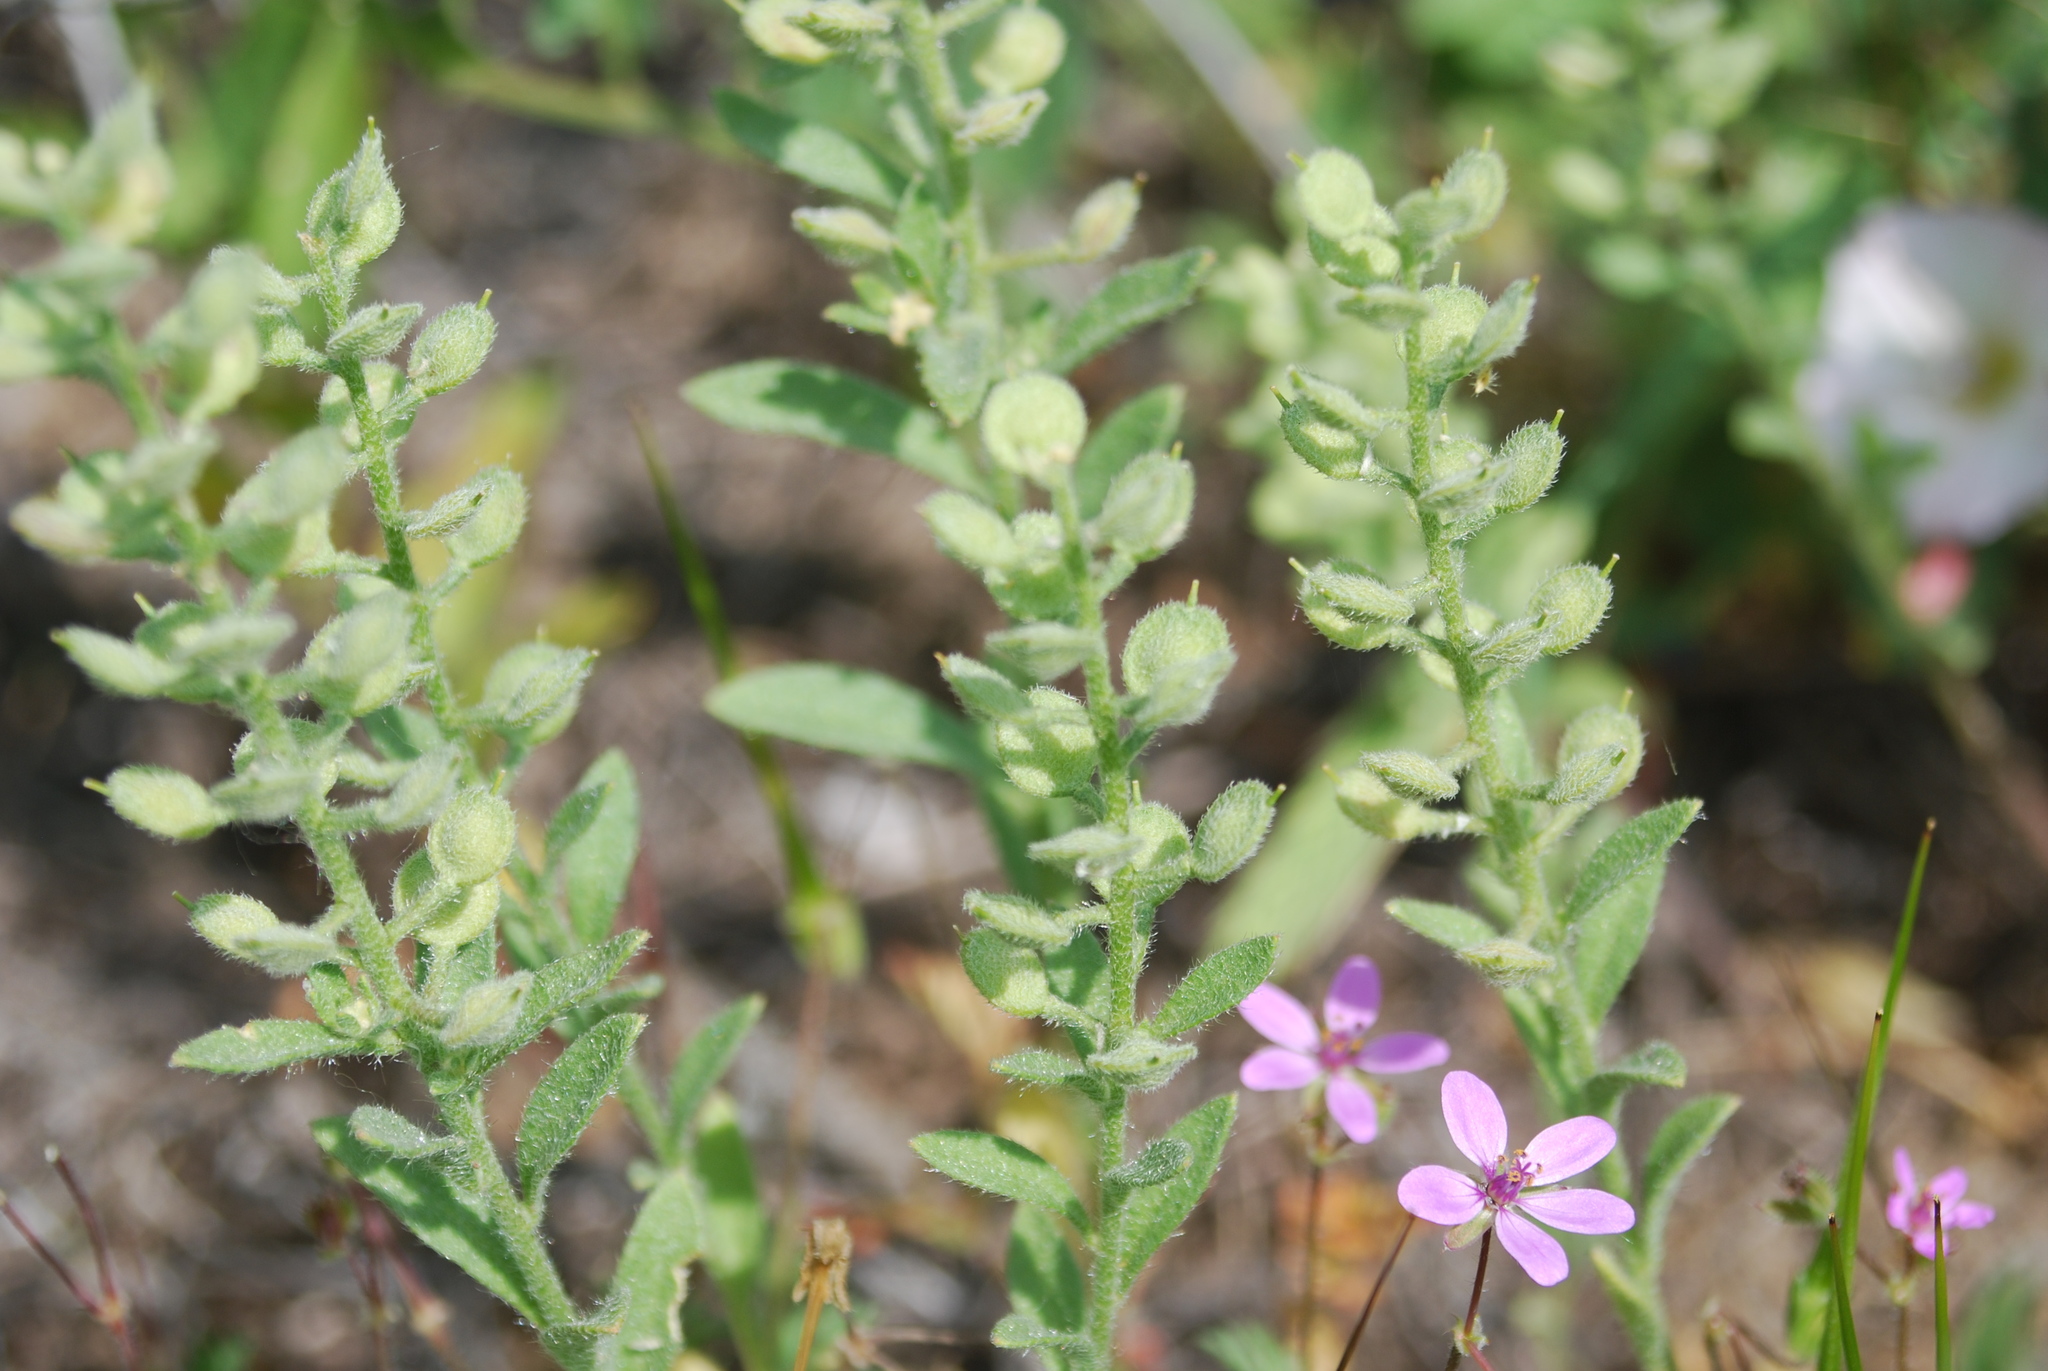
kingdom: Plantae
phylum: Tracheophyta
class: Magnoliopsida
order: Brassicales
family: Brassicaceae
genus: Alyssum
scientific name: Alyssum simplex
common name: Alyssum
